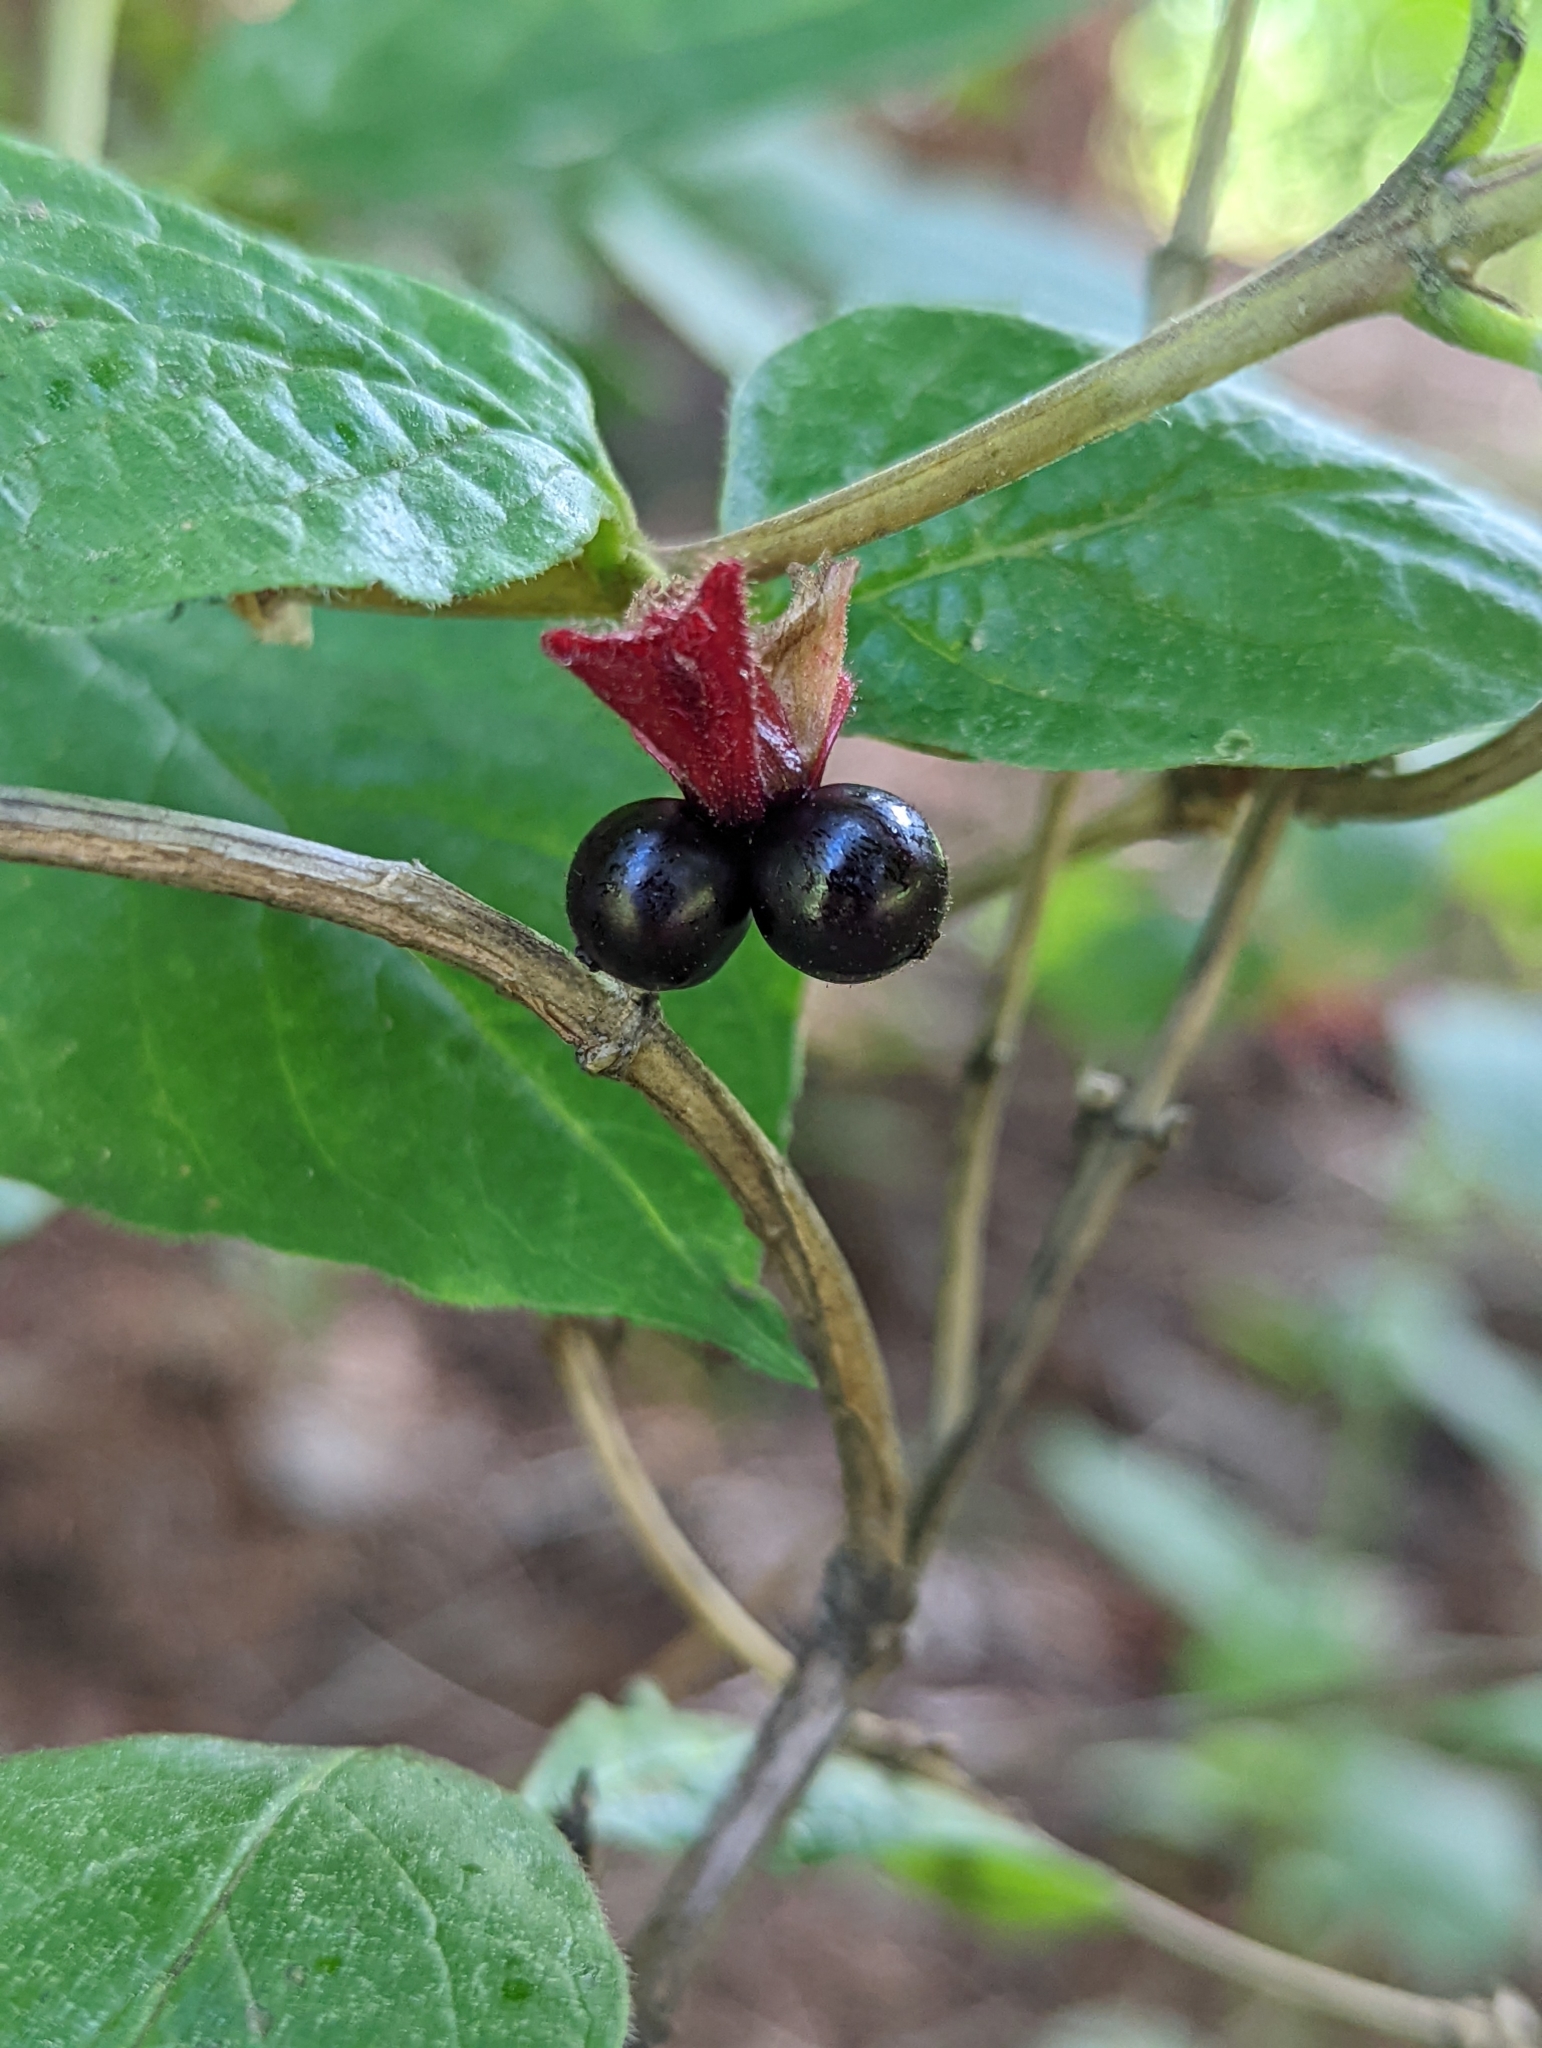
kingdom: Plantae
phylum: Tracheophyta
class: Magnoliopsida
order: Dipsacales
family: Caprifoliaceae
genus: Lonicera
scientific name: Lonicera involucrata
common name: Californian honeysuckle
